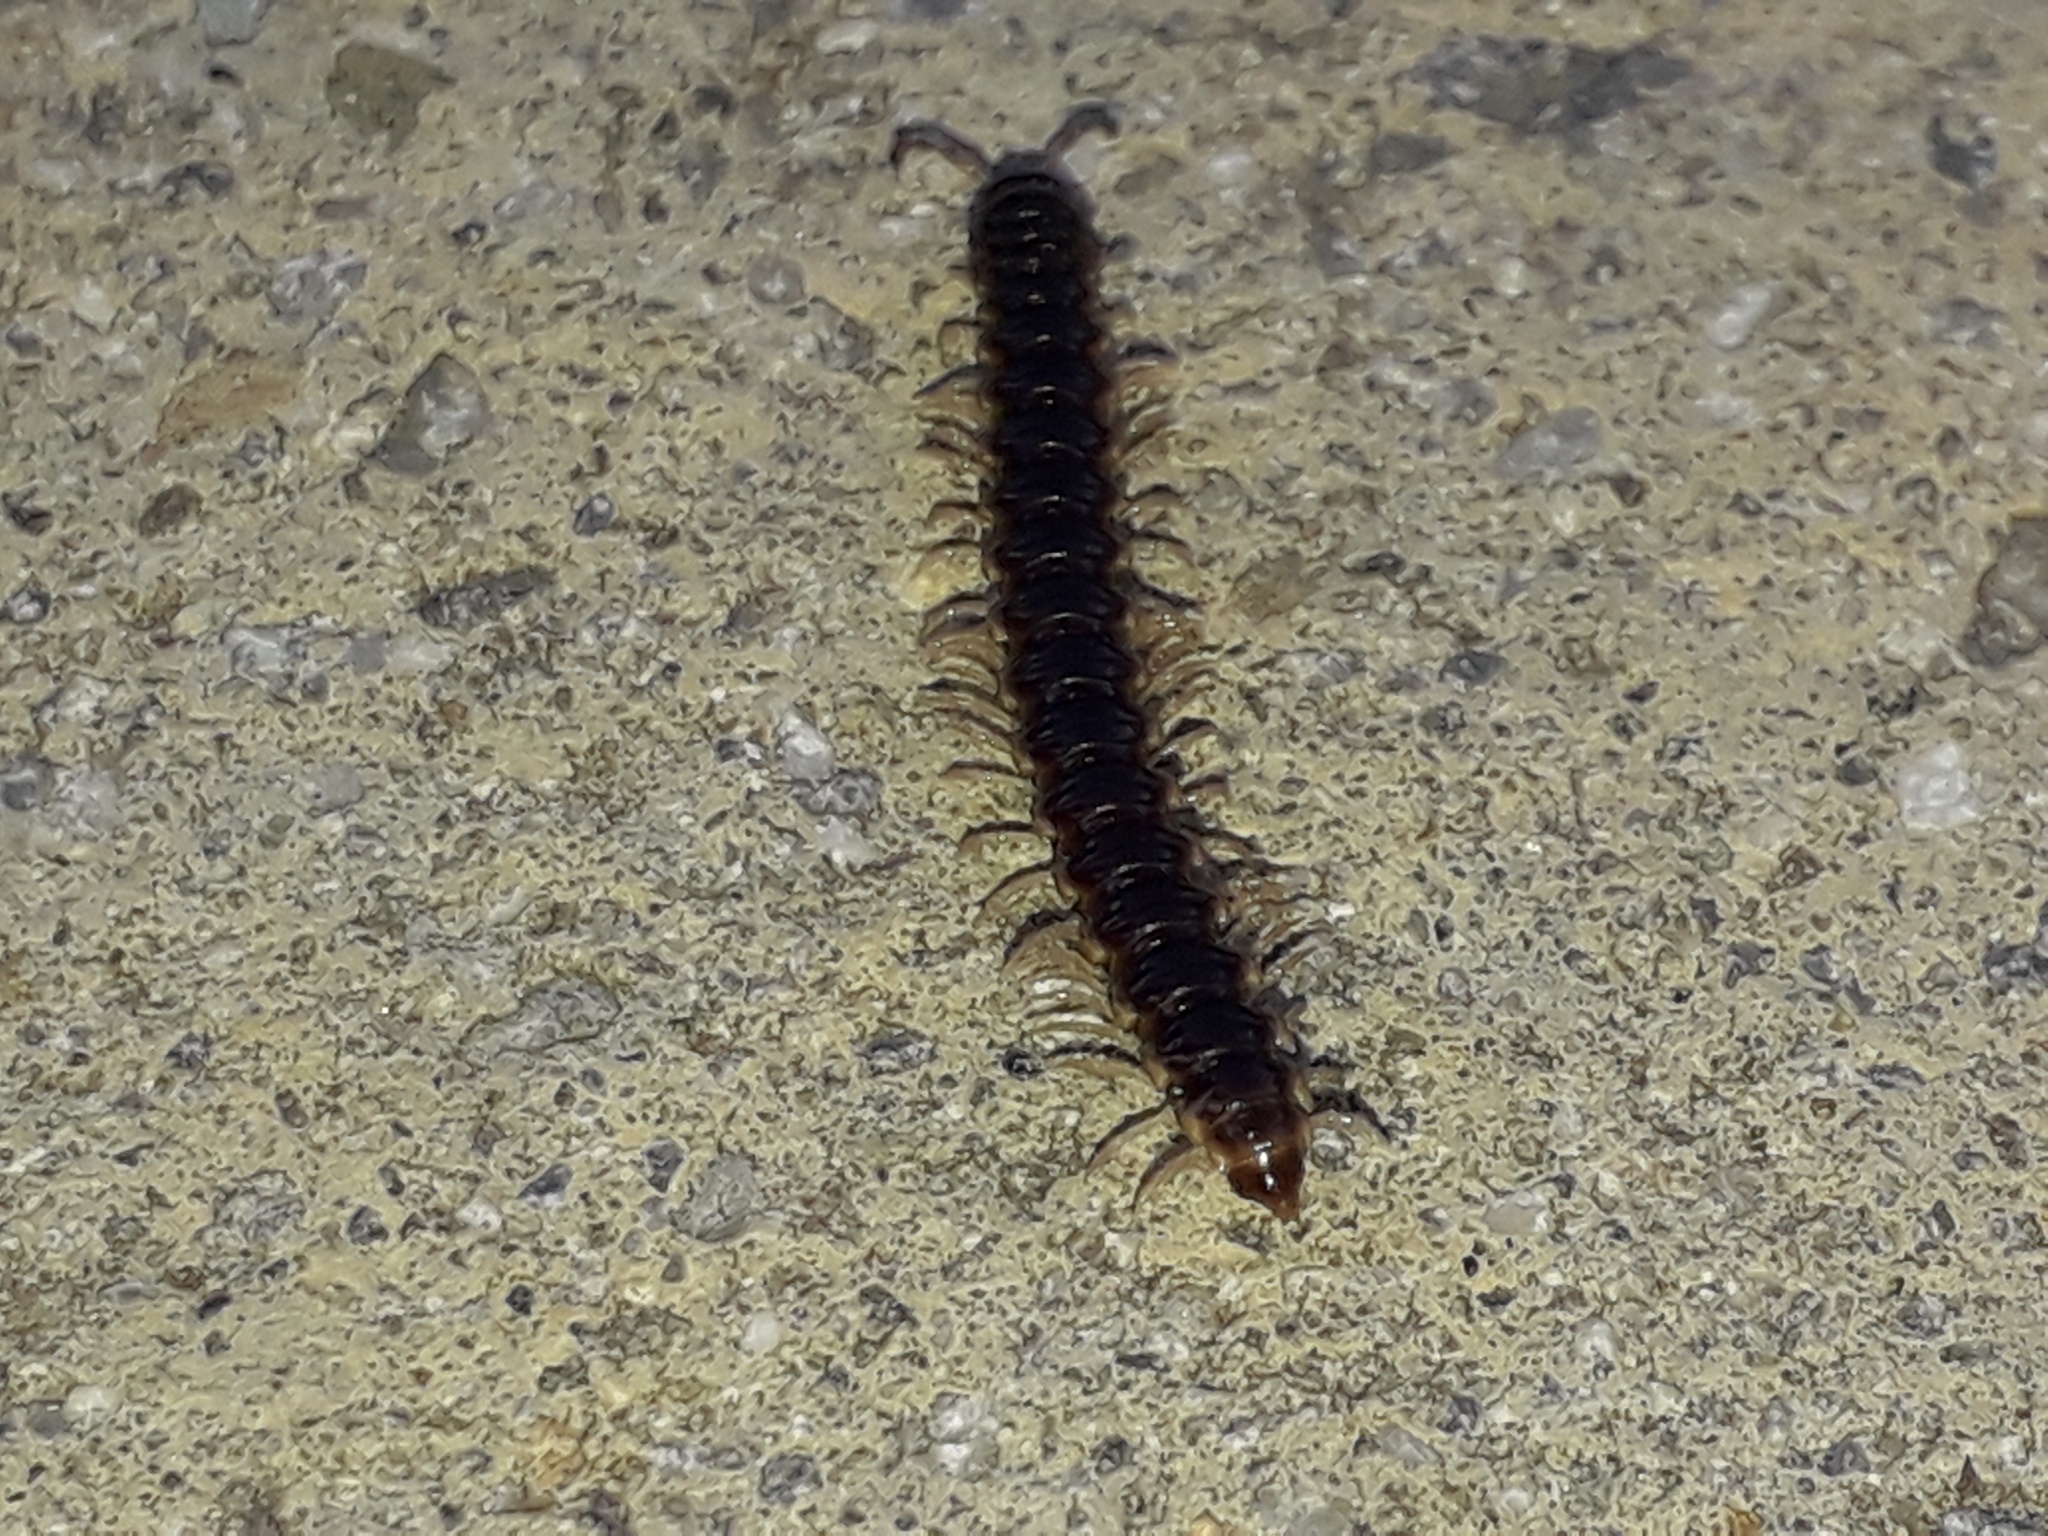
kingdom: Animalia
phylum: Arthropoda
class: Diplopoda
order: Polydesmida
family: Paradoxosomatidae
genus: Oxidus
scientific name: Oxidus gracilis
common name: Greenhouse millipede
